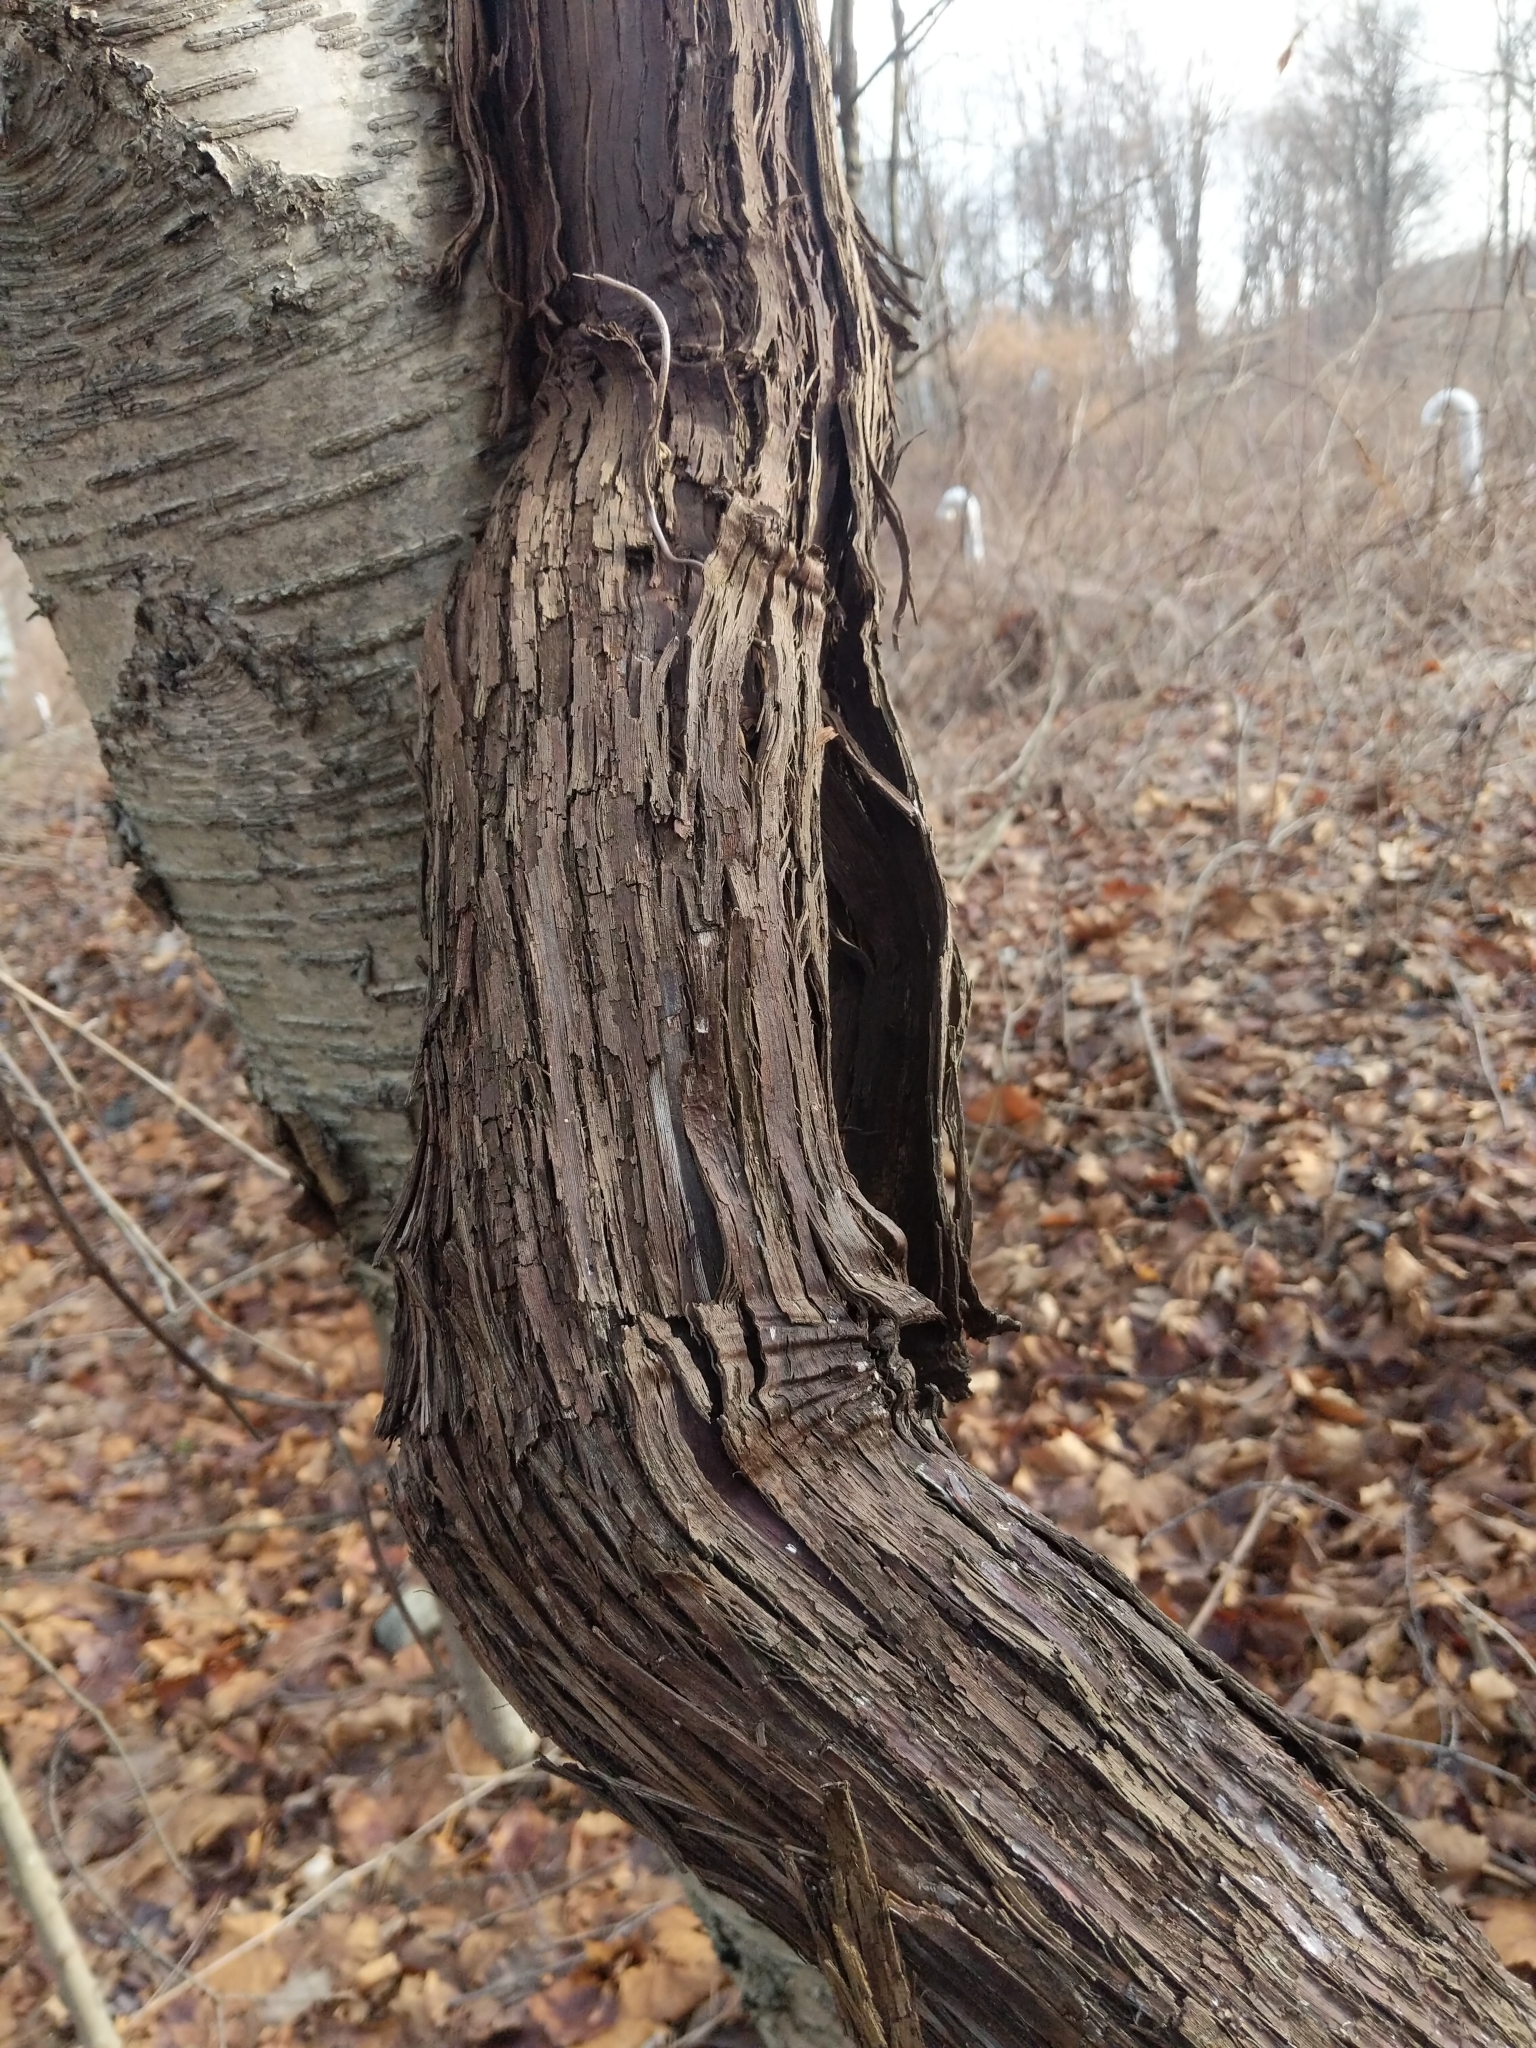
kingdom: Plantae
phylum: Tracheophyta
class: Magnoliopsida
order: Vitales
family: Vitaceae
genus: Vitis
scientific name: Vitis
